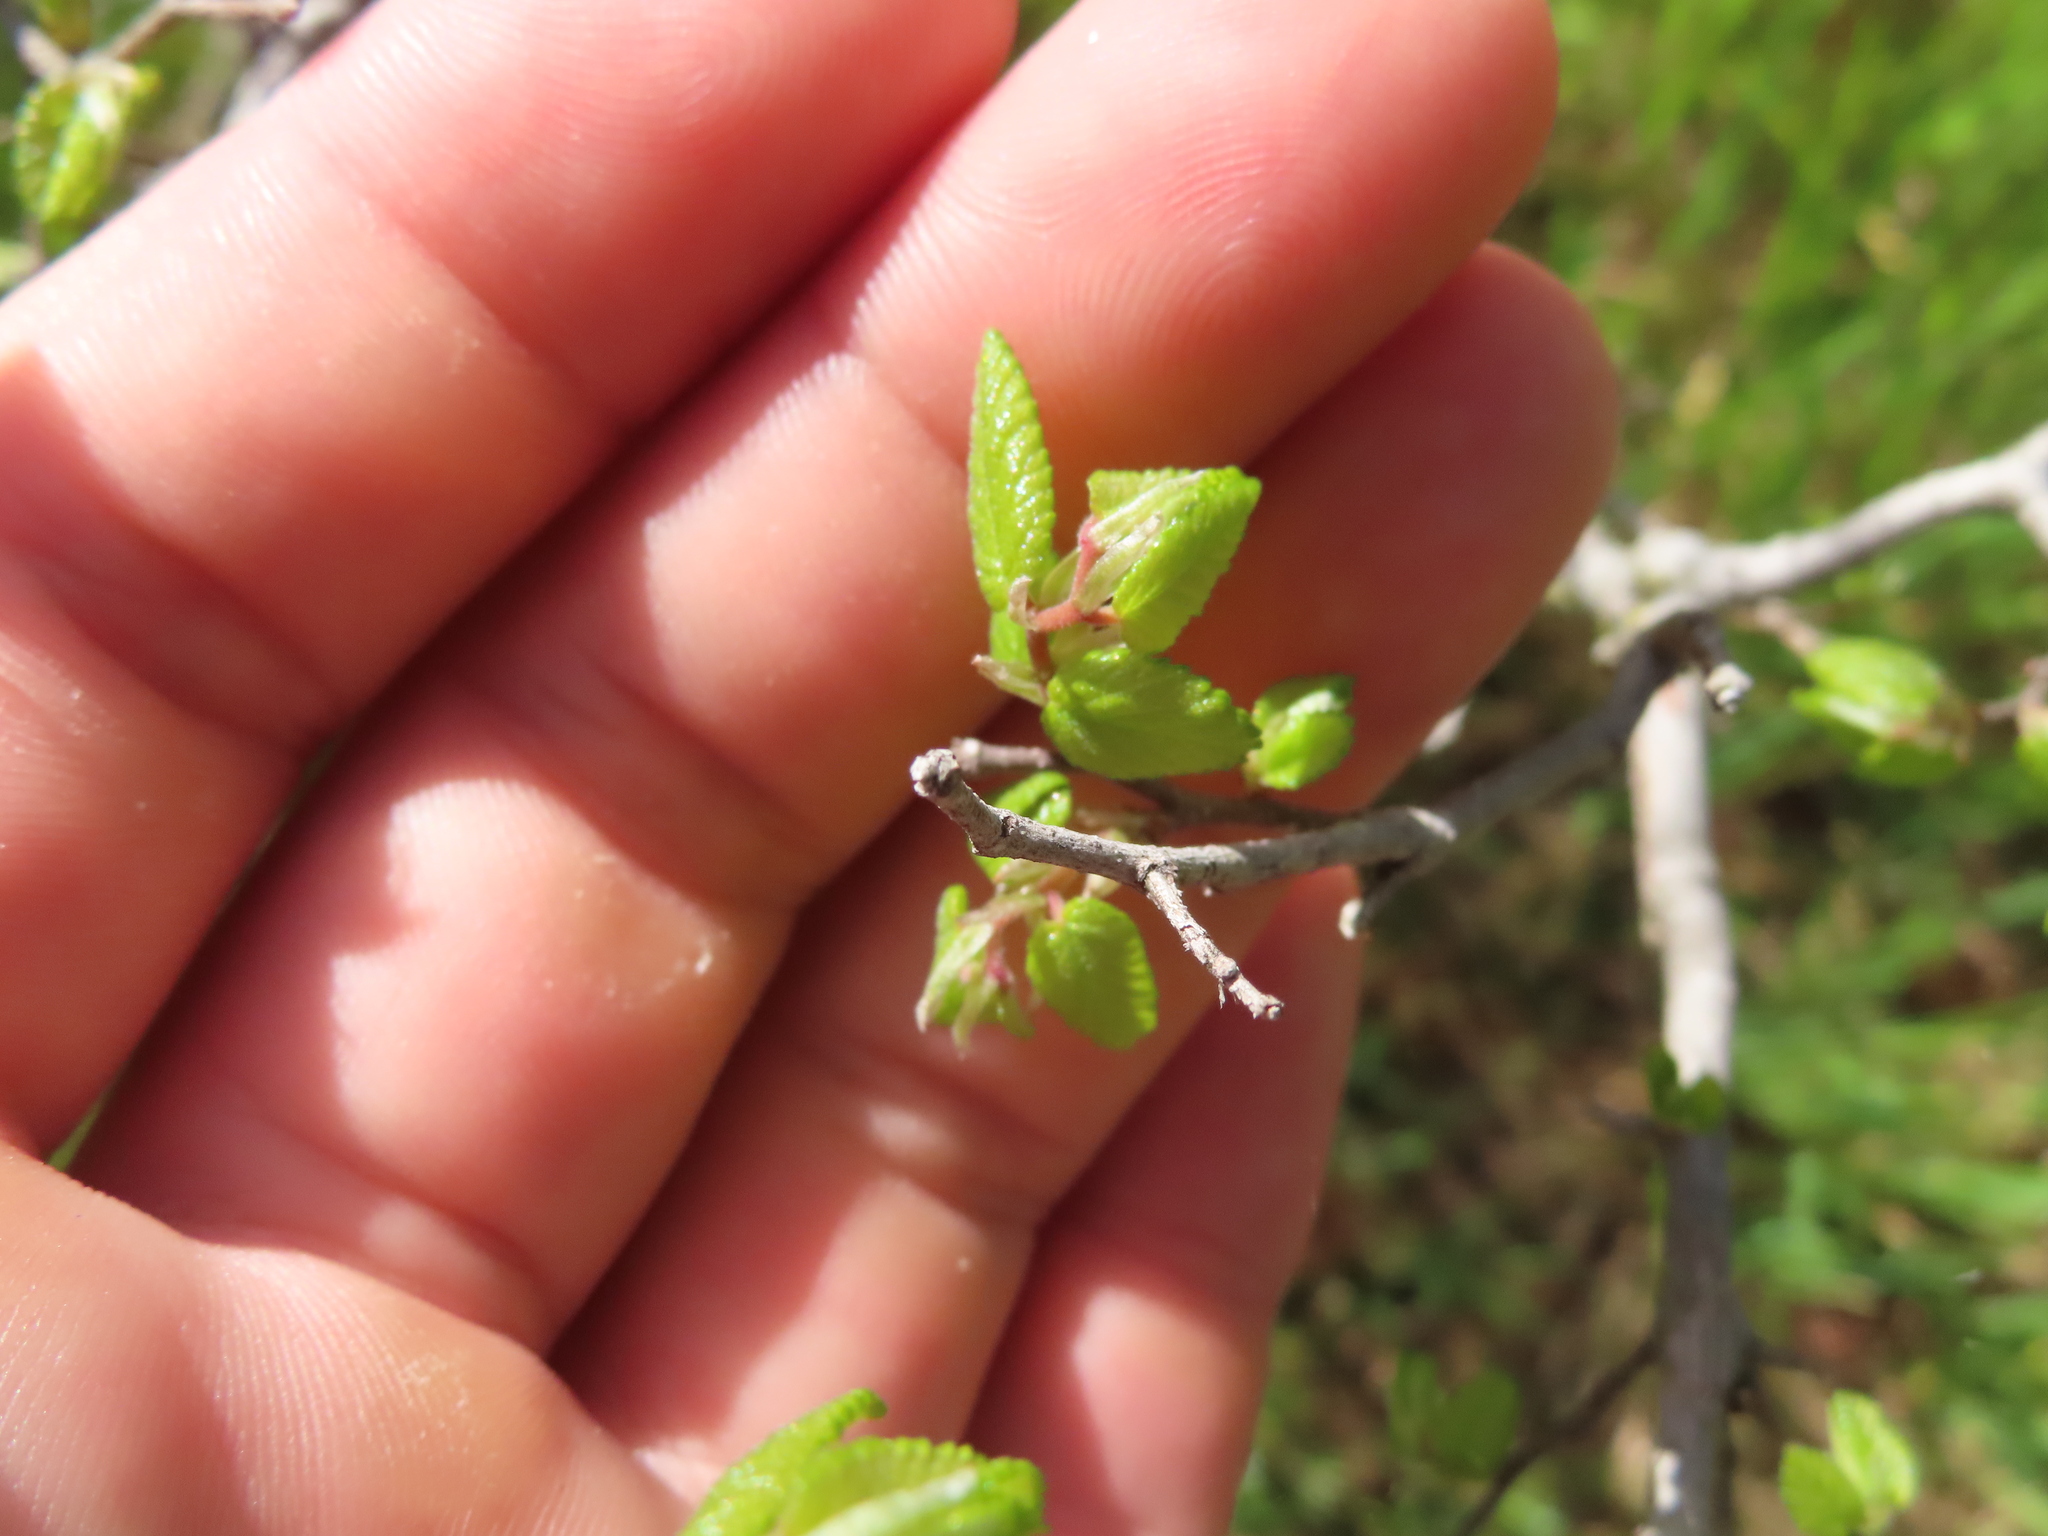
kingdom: Plantae
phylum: Tracheophyta
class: Magnoliopsida
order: Rosales
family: Ulmaceae
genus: Ulmus
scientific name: Ulmus crassifolia
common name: Basket elm
